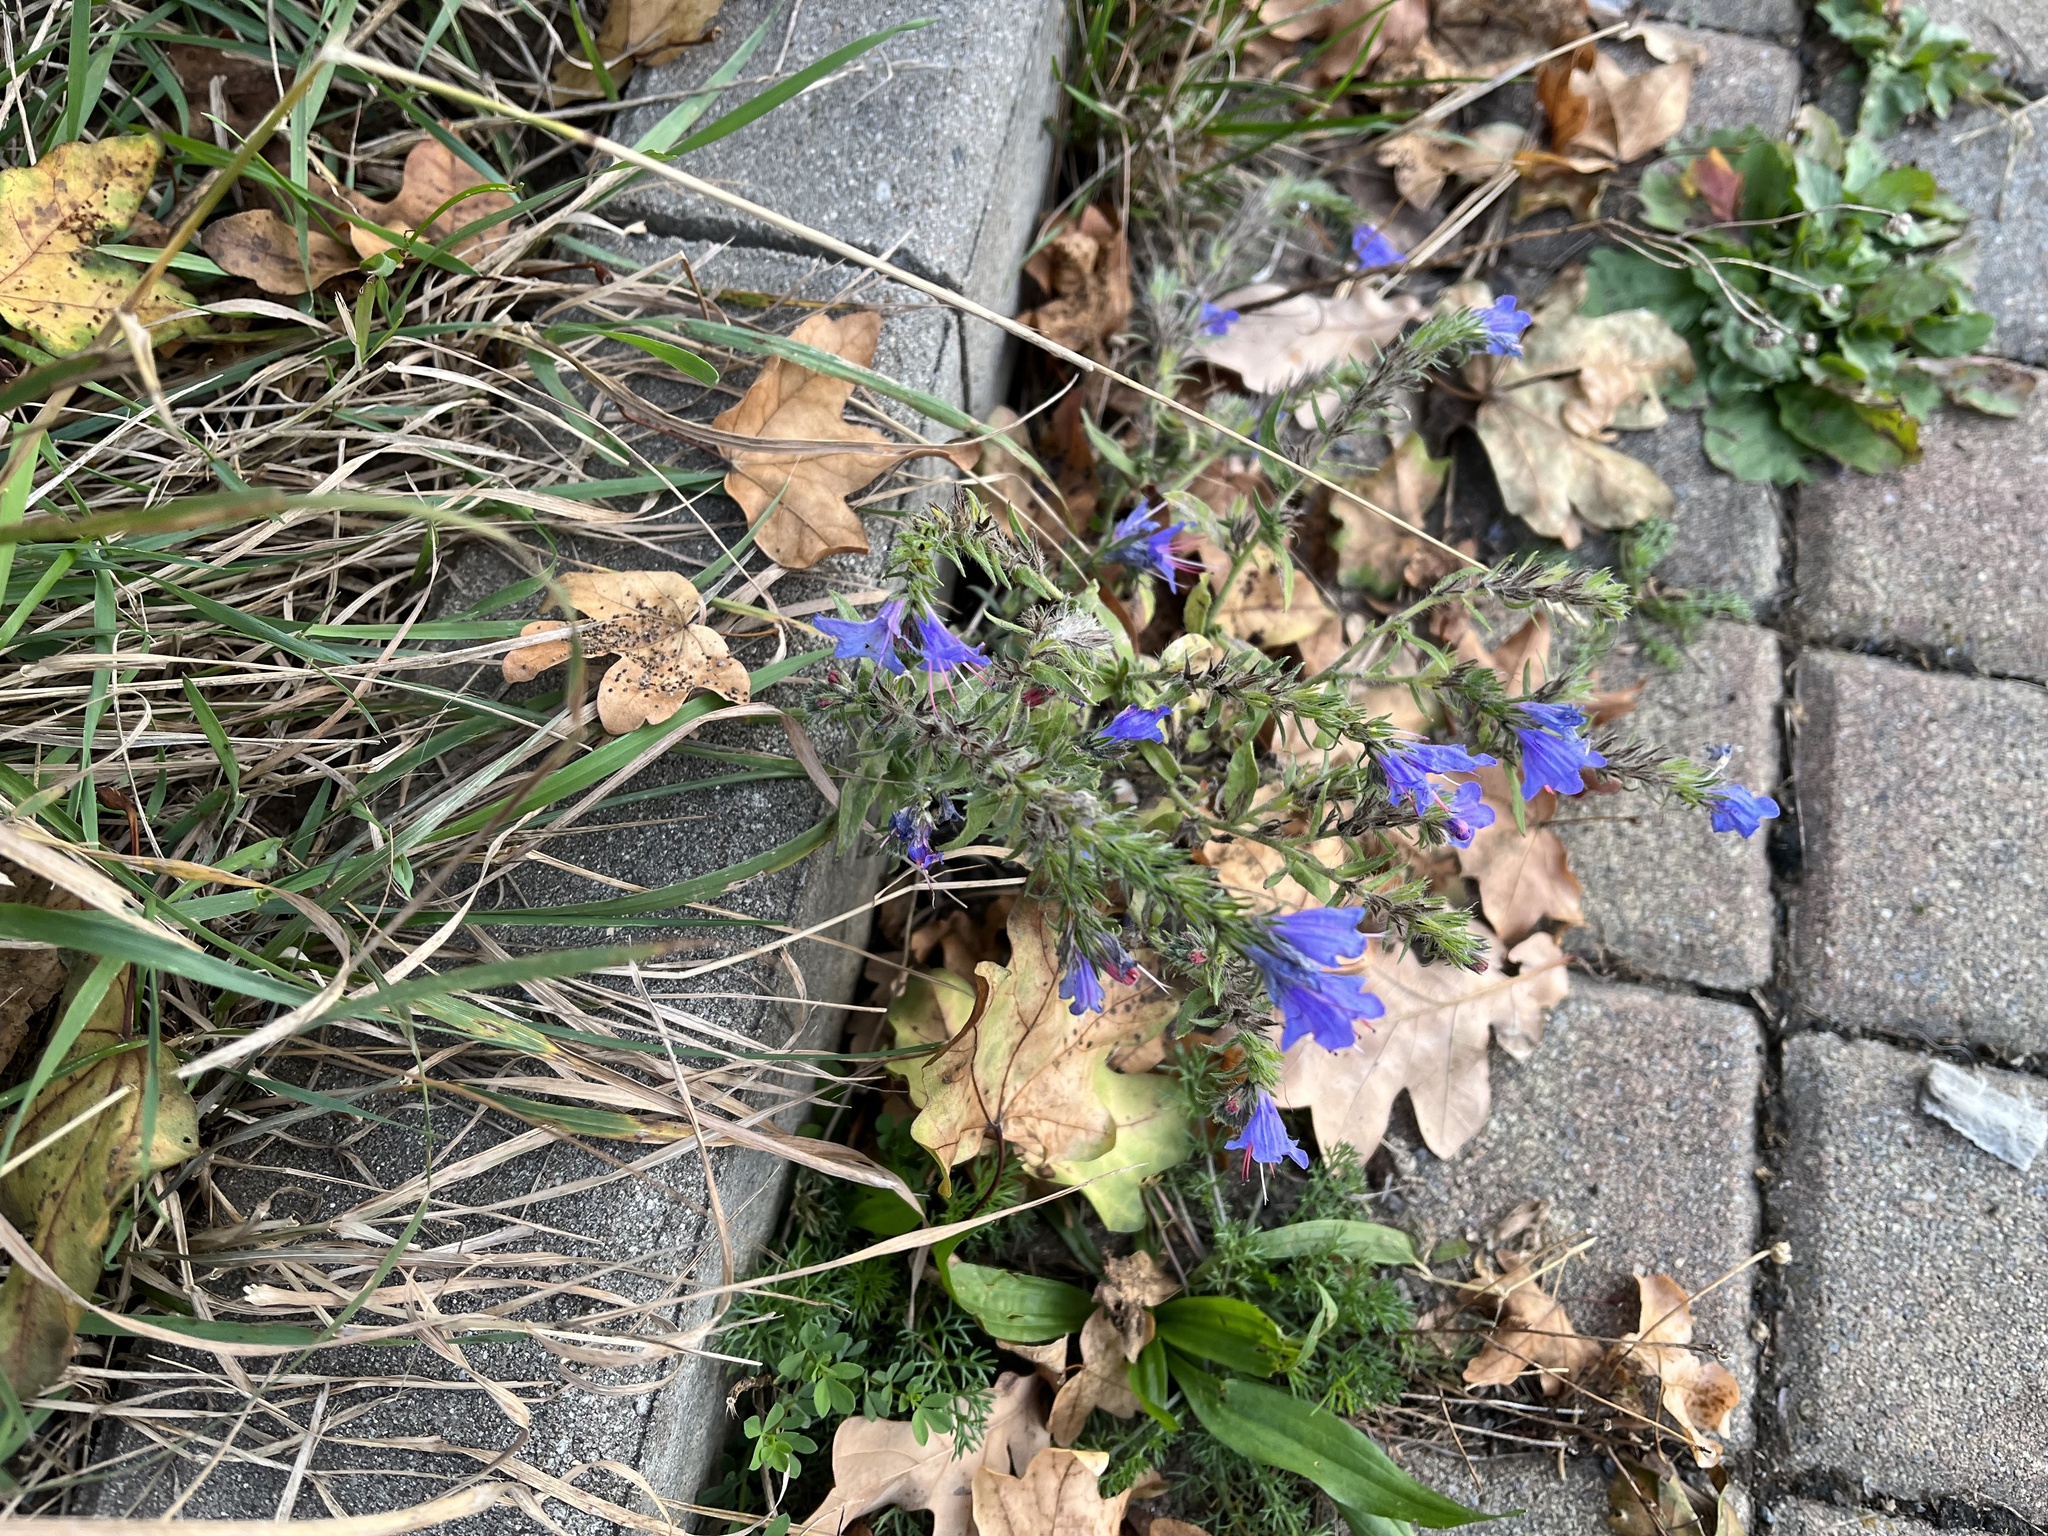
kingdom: Plantae
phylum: Tracheophyta
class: Magnoliopsida
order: Boraginales
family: Boraginaceae
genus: Echium
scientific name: Echium vulgare
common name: Common viper's bugloss
